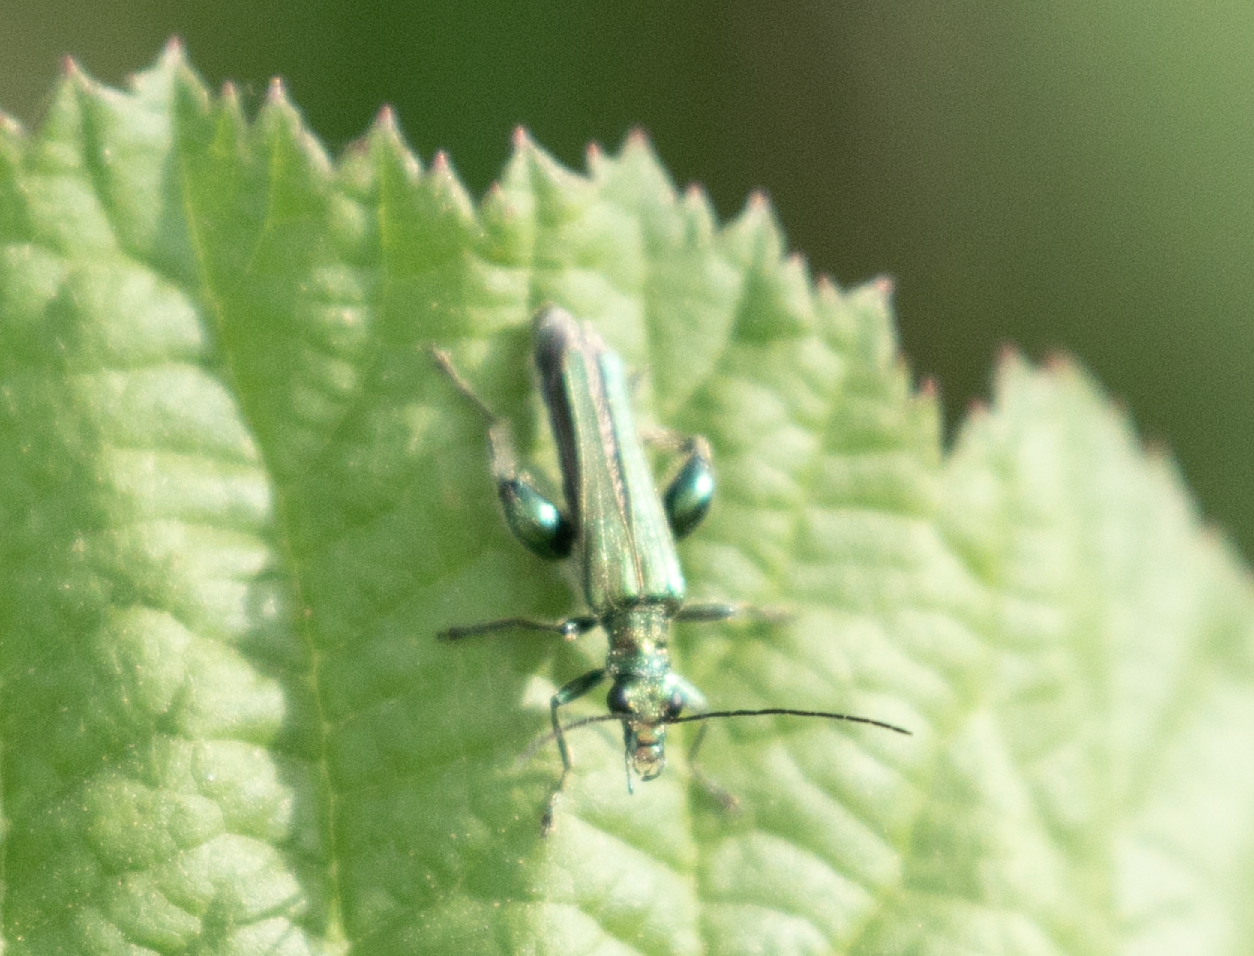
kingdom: Animalia
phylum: Arthropoda
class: Insecta
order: Coleoptera
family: Oedemeridae
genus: Oedemera
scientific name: Oedemera nobilis
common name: Swollen-thighed beetle
